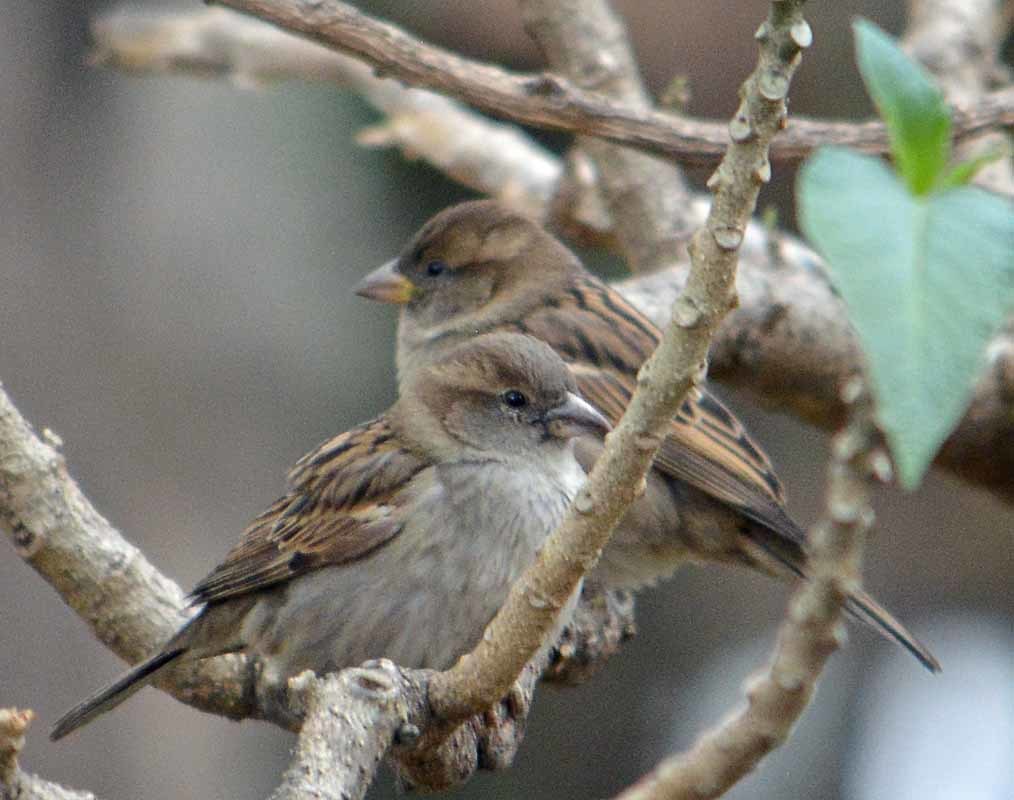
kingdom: Animalia
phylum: Chordata
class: Aves
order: Passeriformes
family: Passeridae
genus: Passer
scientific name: Passer domesticus
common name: House sparrow
